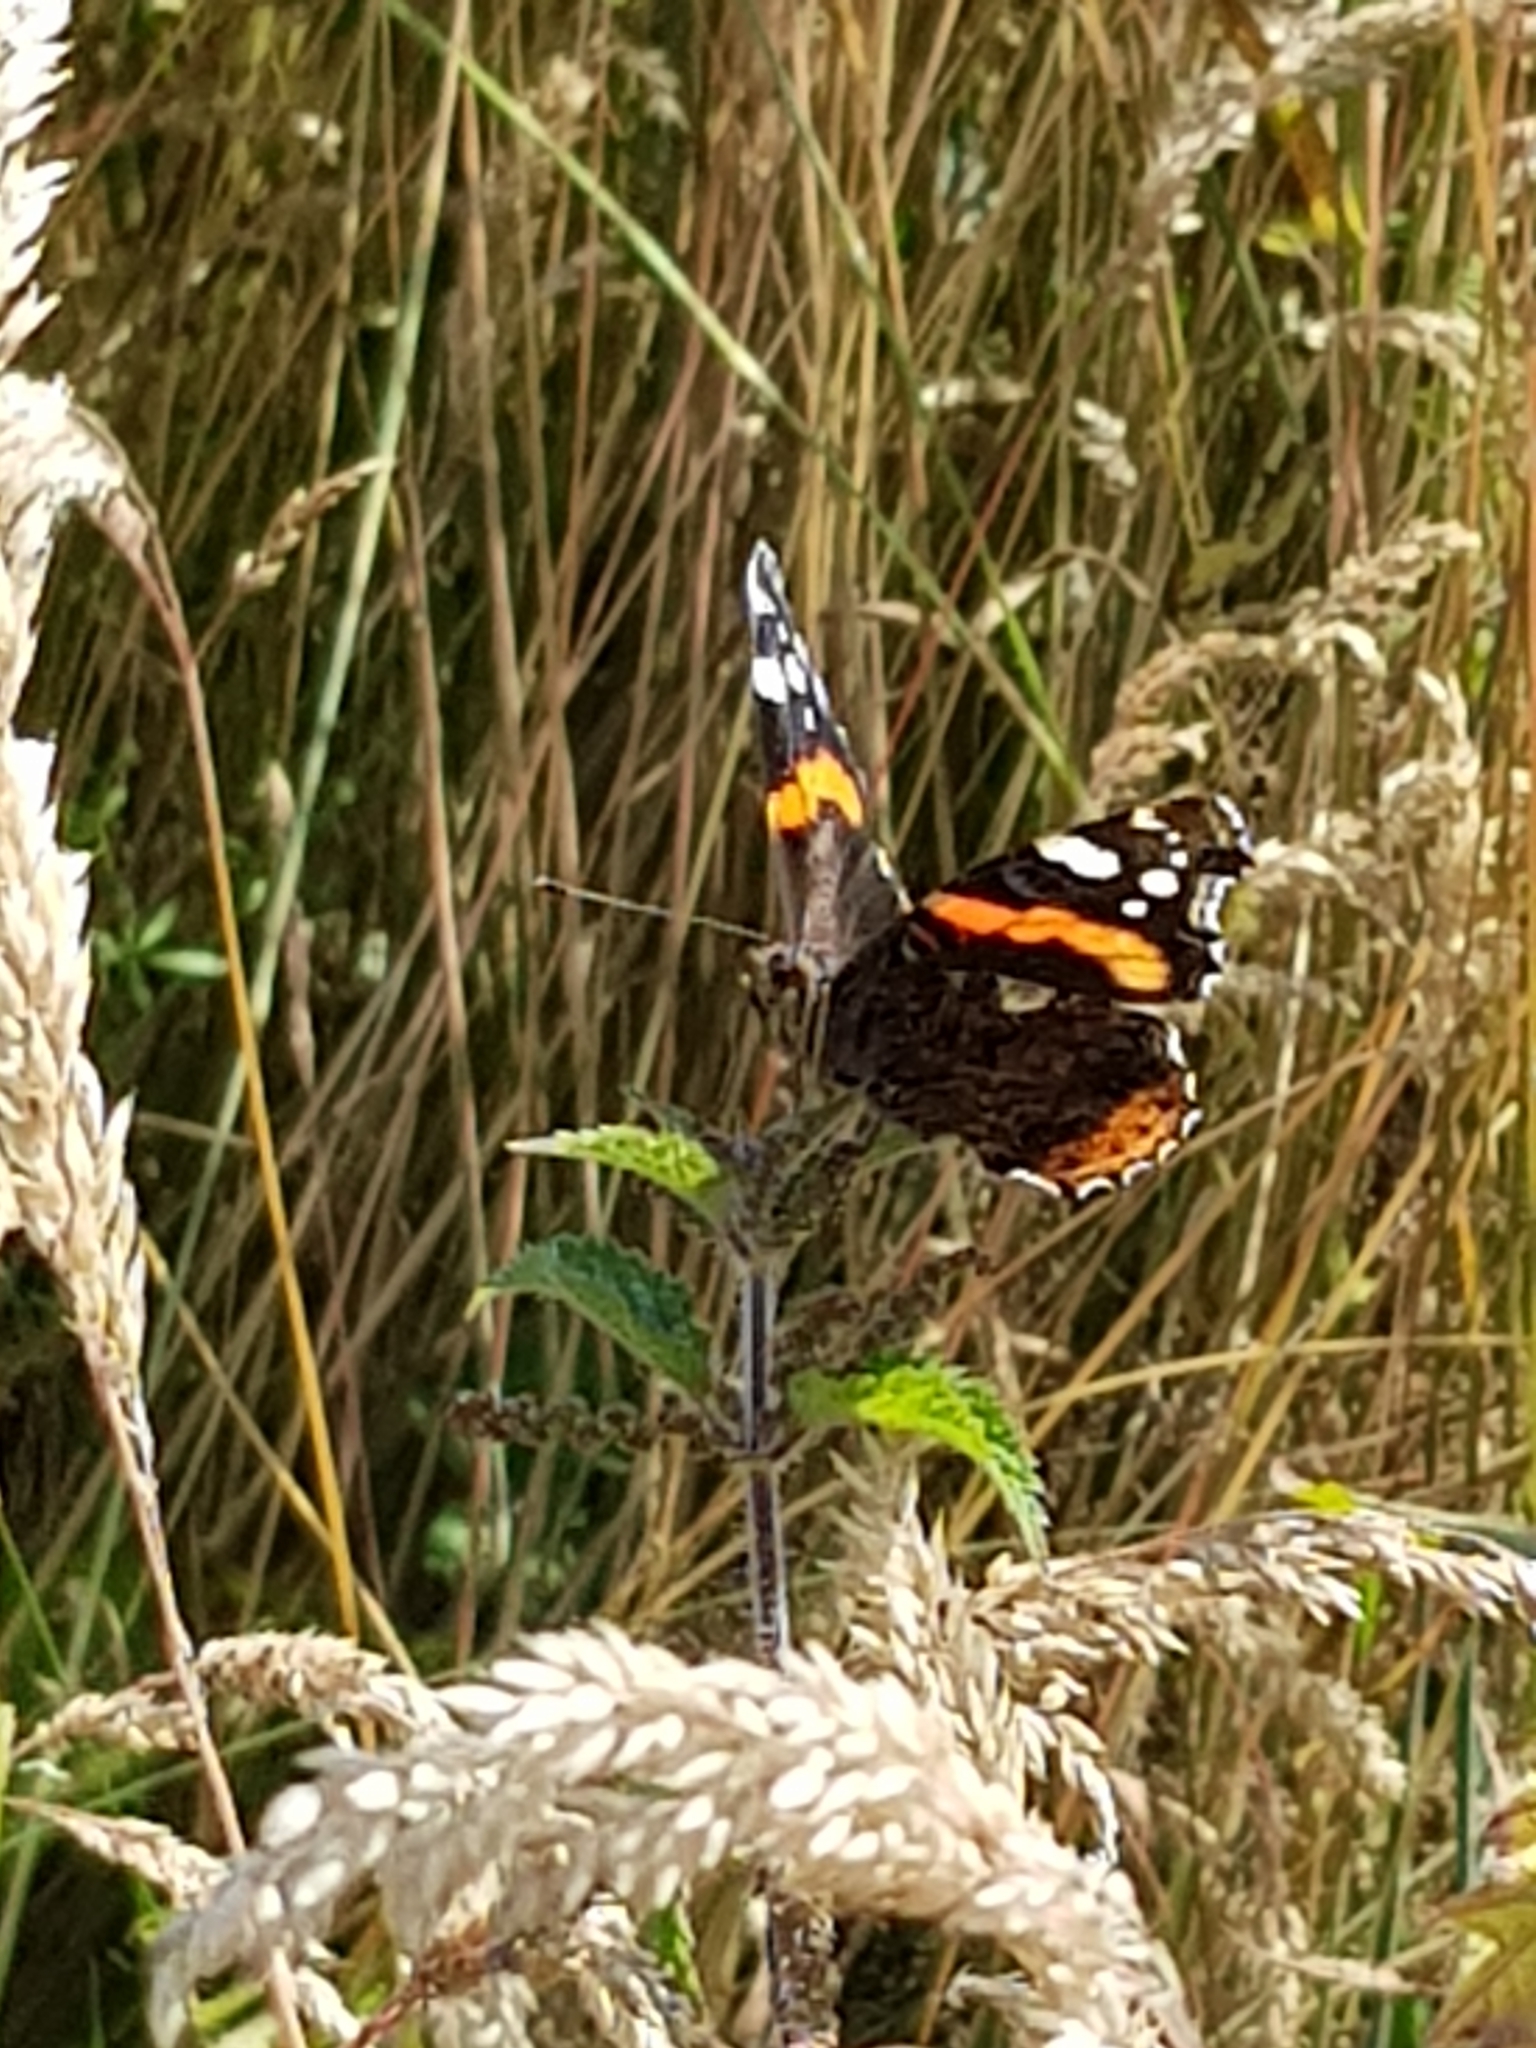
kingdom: Animalia
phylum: Arthropoda
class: Insecta
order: Lepidoptera
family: Nymphalidae
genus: Vanessa
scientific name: Vanessa atalanta
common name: Red admiral
